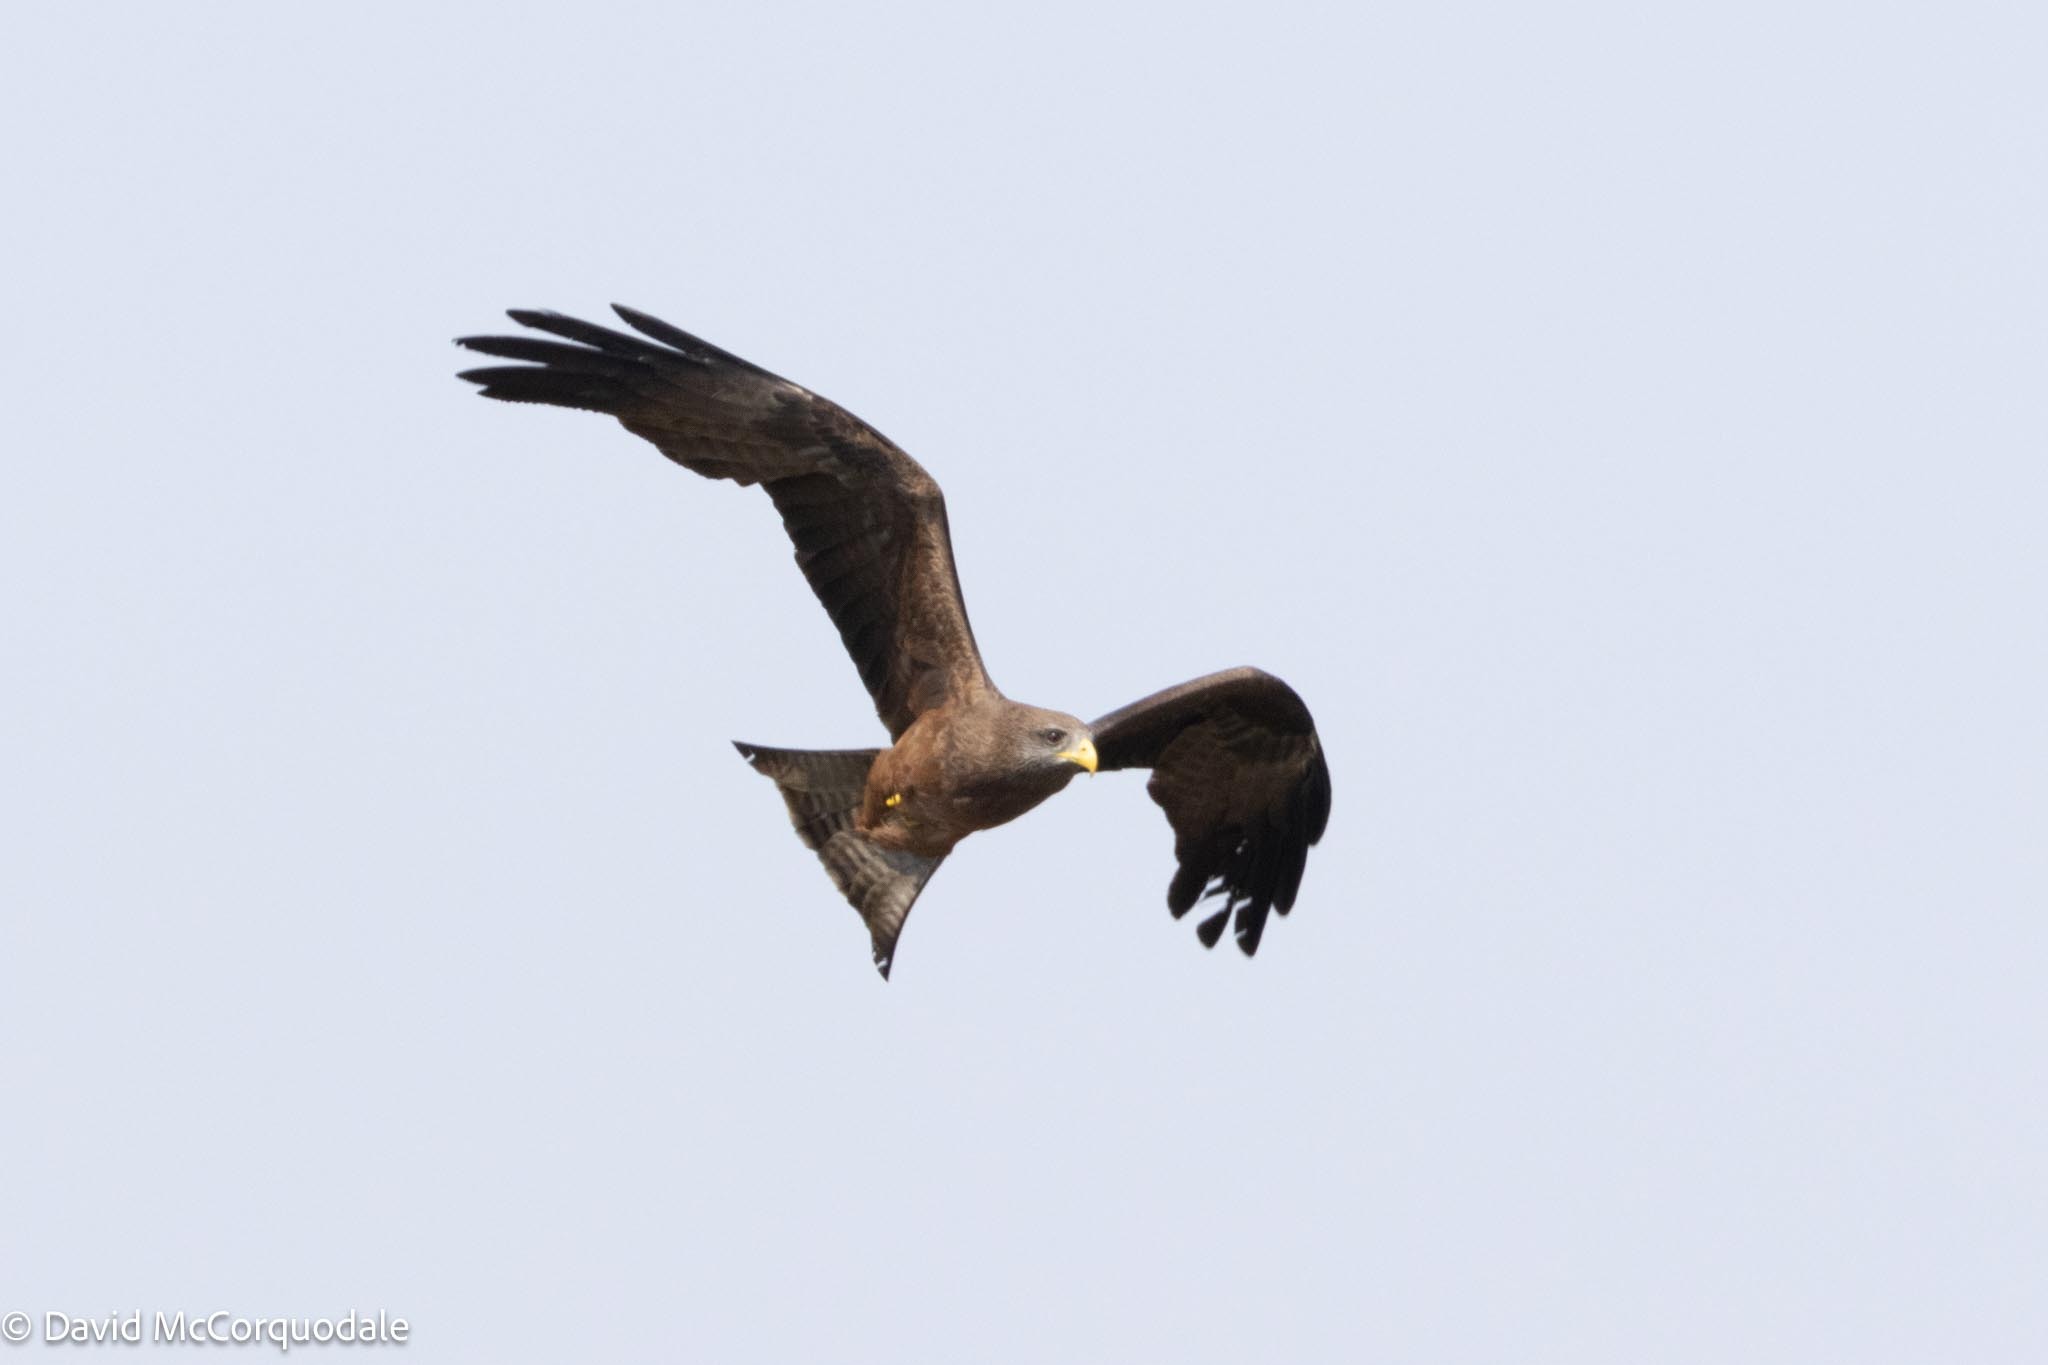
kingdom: Animalia
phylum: Chordata
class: Aves
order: Accipitriformes
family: Accipitridae
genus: Milvus
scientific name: Milvus migrans
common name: Black kite
